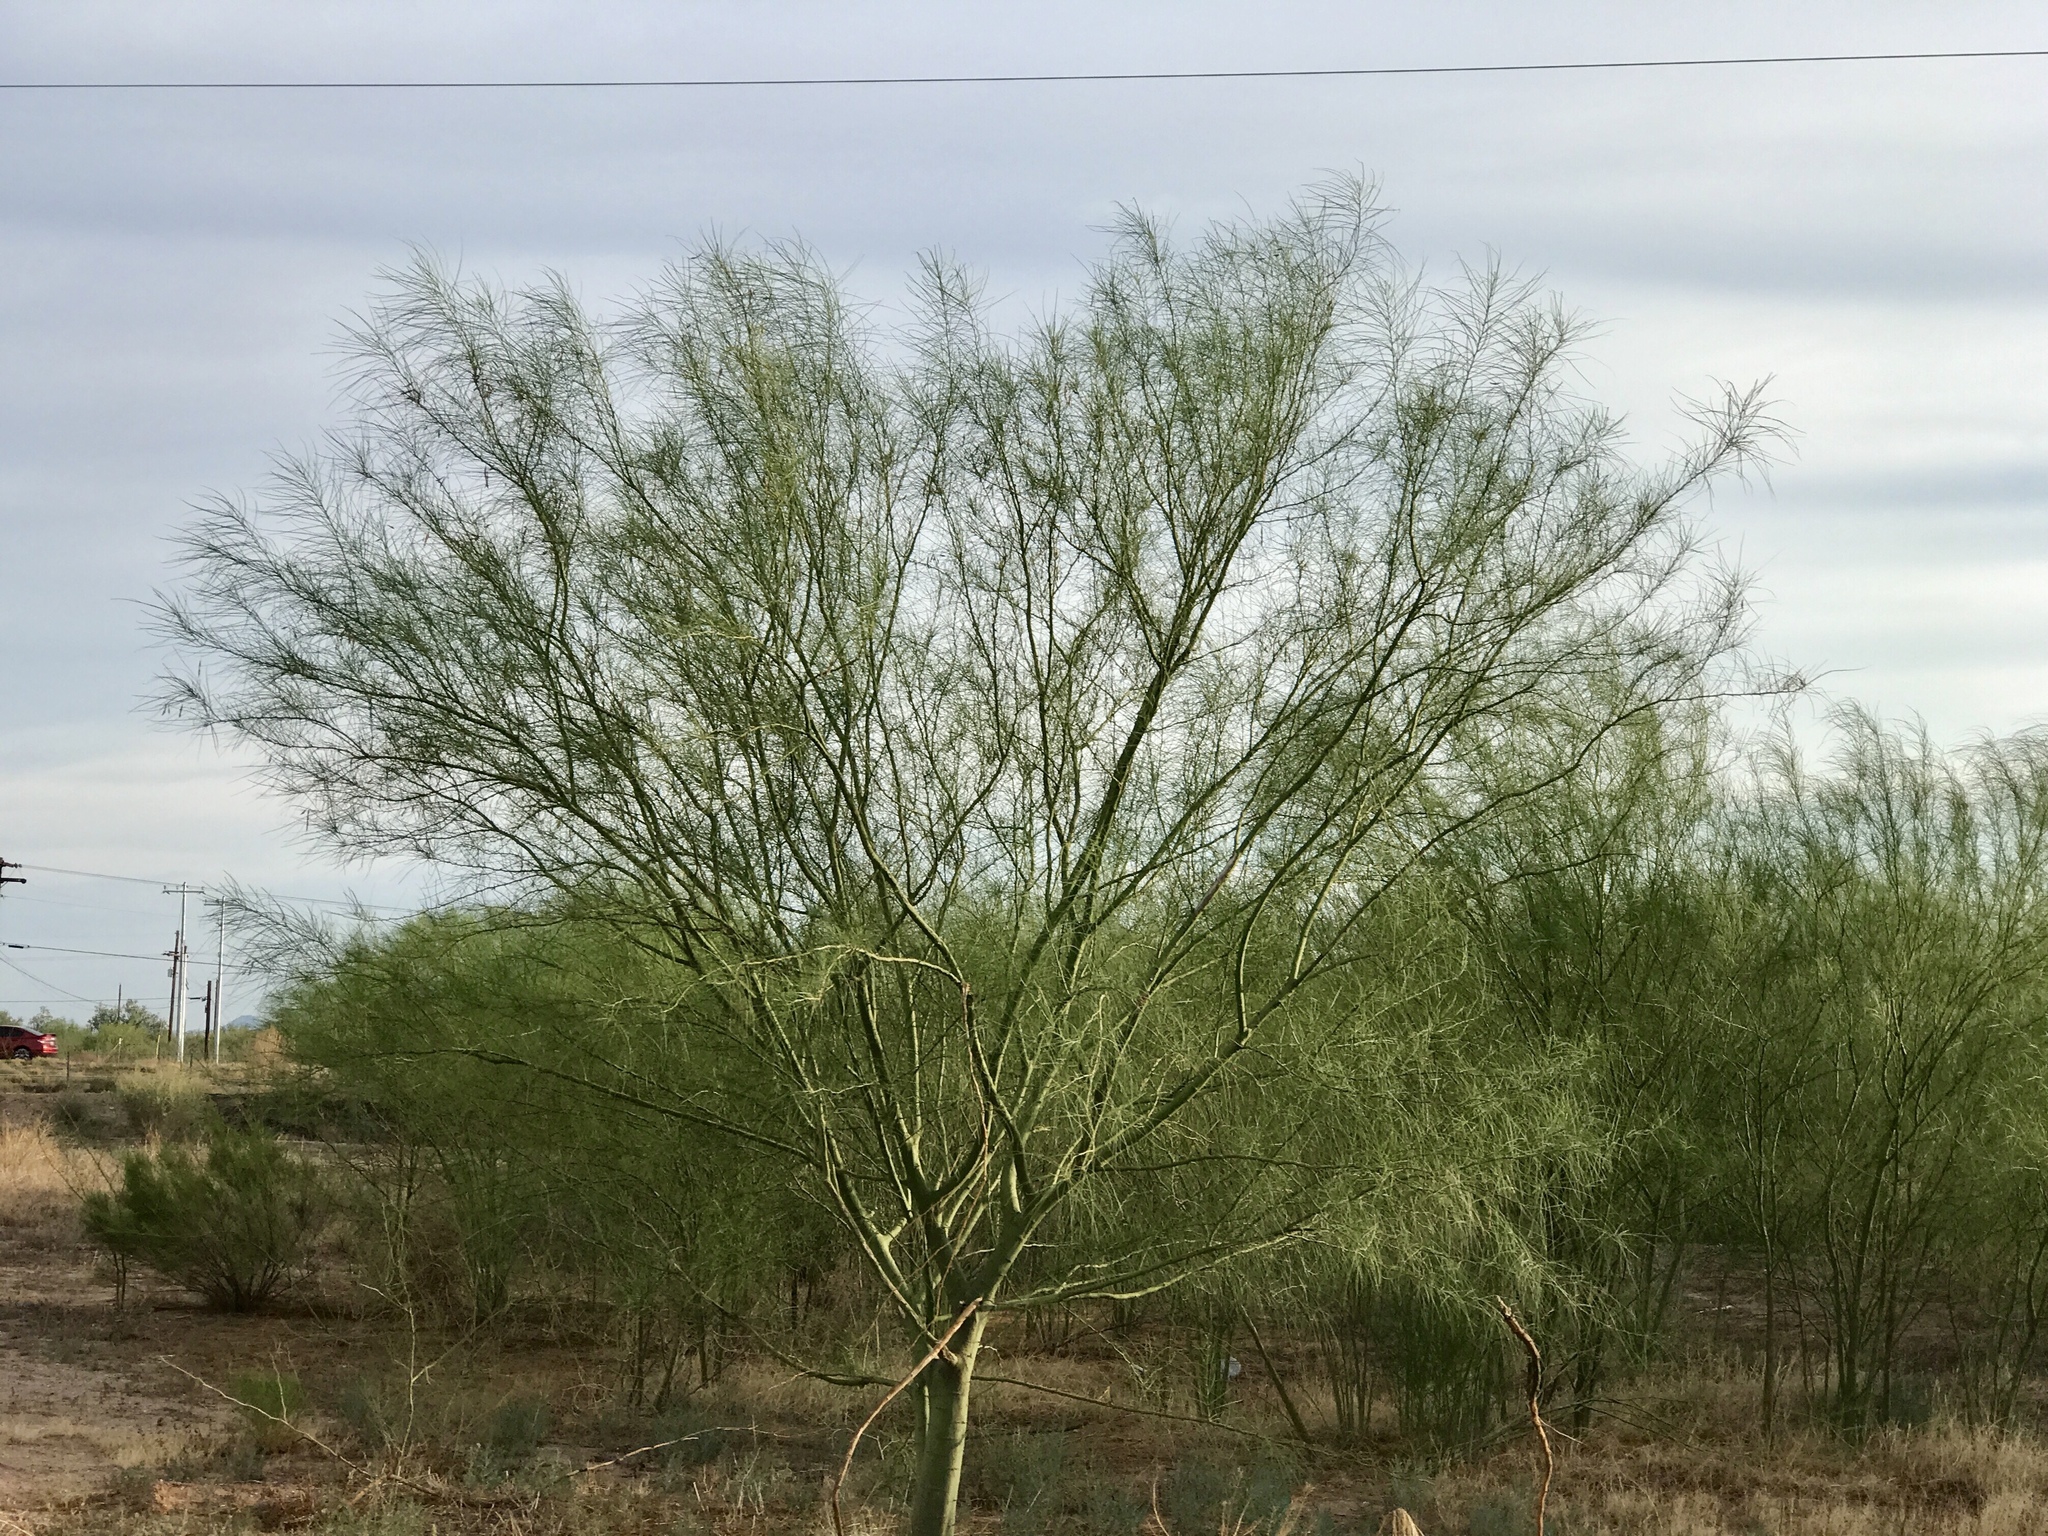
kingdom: Plantae
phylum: Tracheophyta
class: Magnoliopsida
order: Fabales
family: Fabaceae
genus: Parkinsonia
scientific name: Parkinsonia aculeata
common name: Jerusalem thorn
